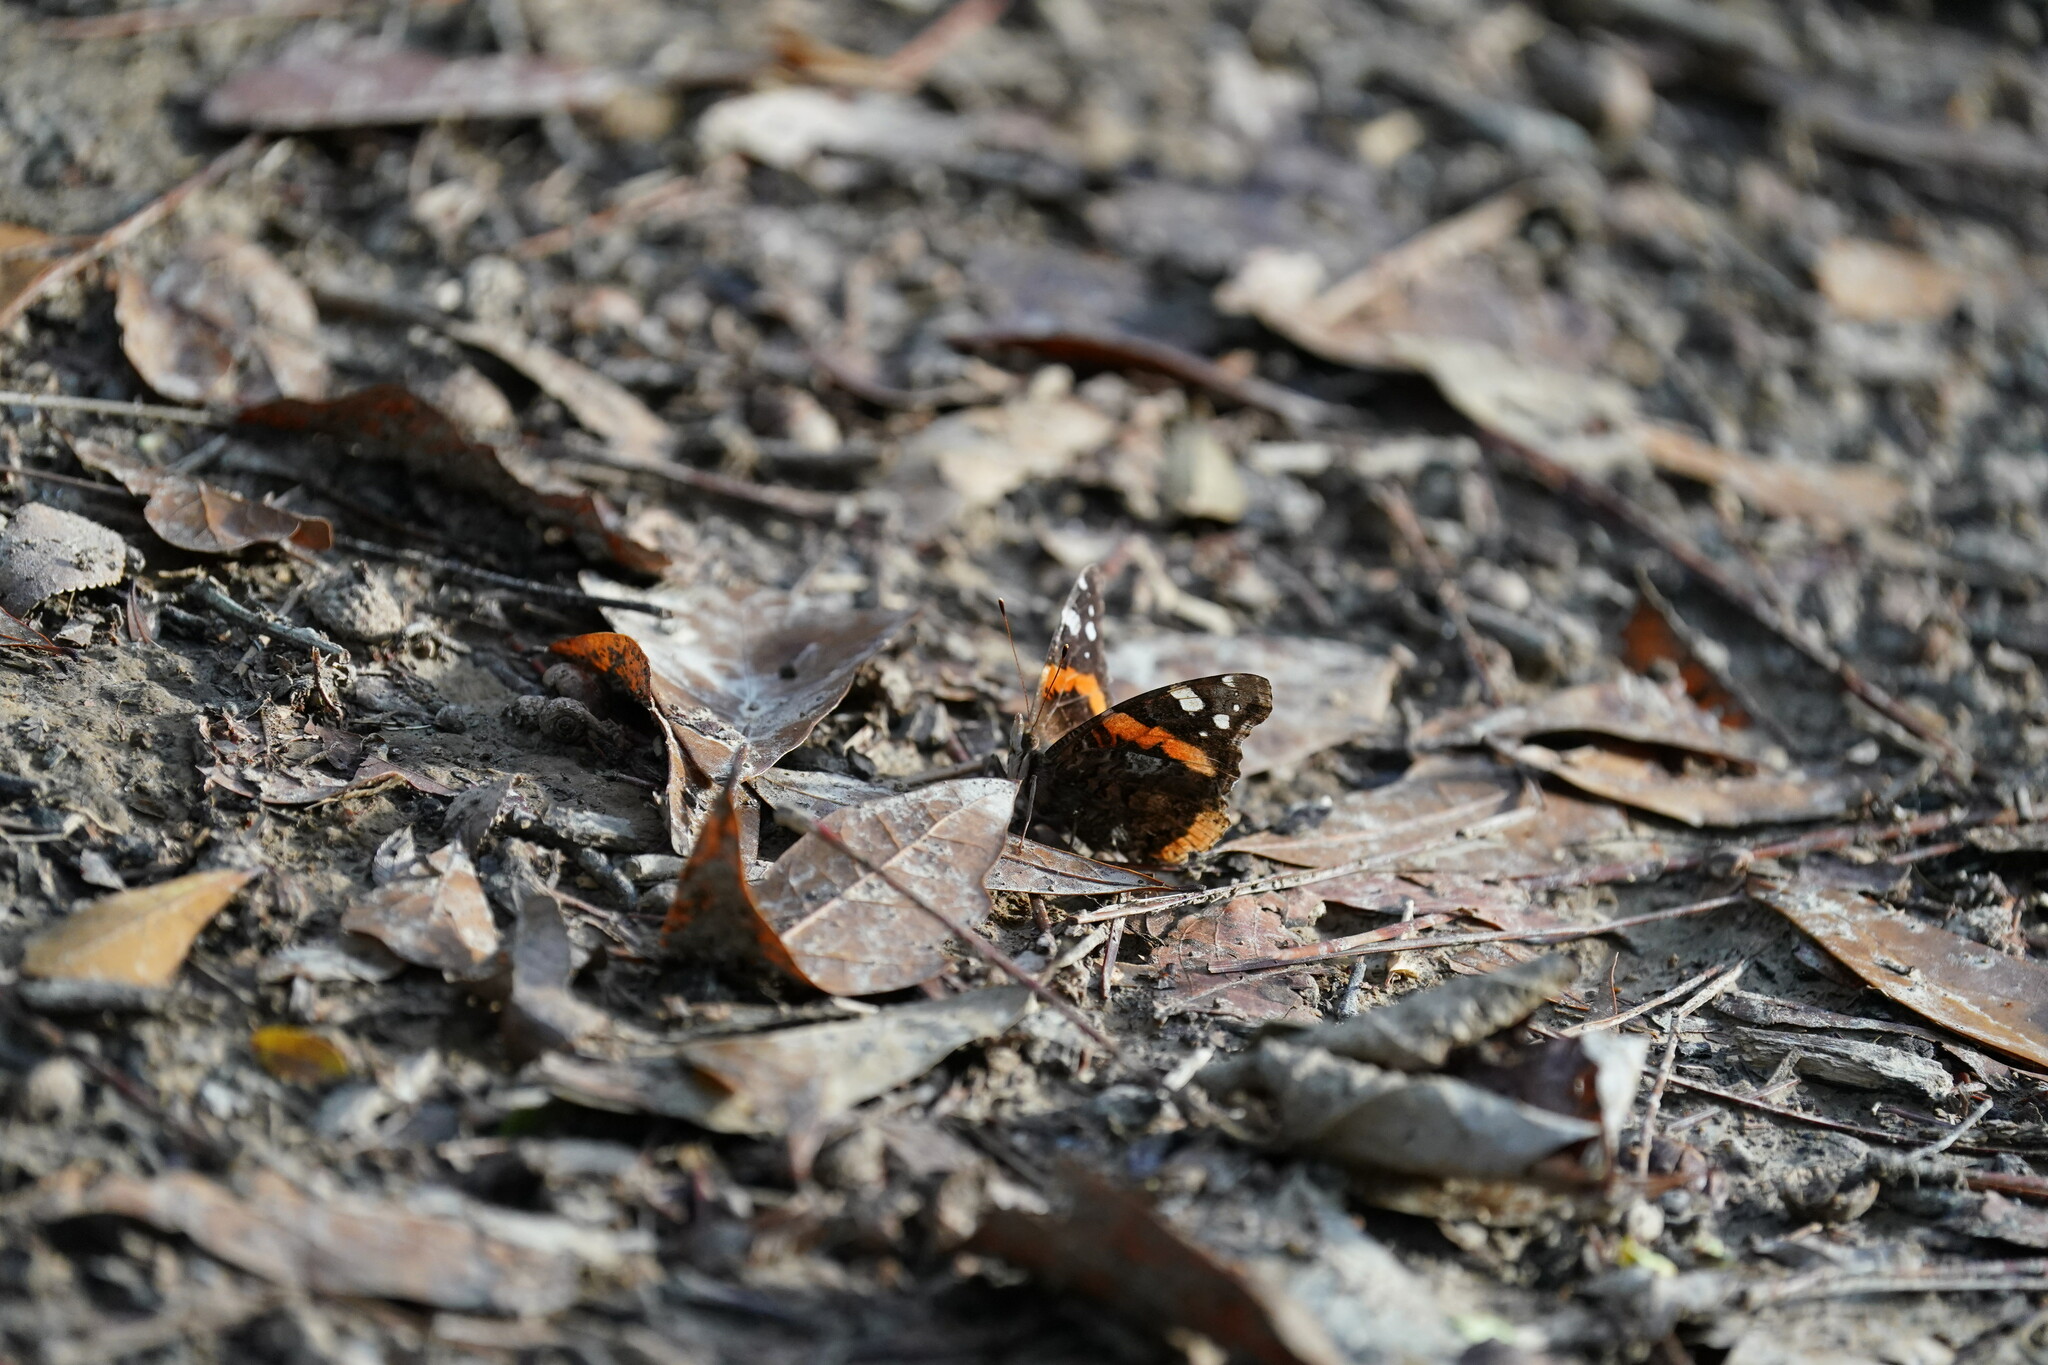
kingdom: Animalia
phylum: Arthropoda
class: Insecta
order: Lepidoptera
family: Nymphalidae
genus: Vanessa
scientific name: Vanessa atalanta
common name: Red admiral
